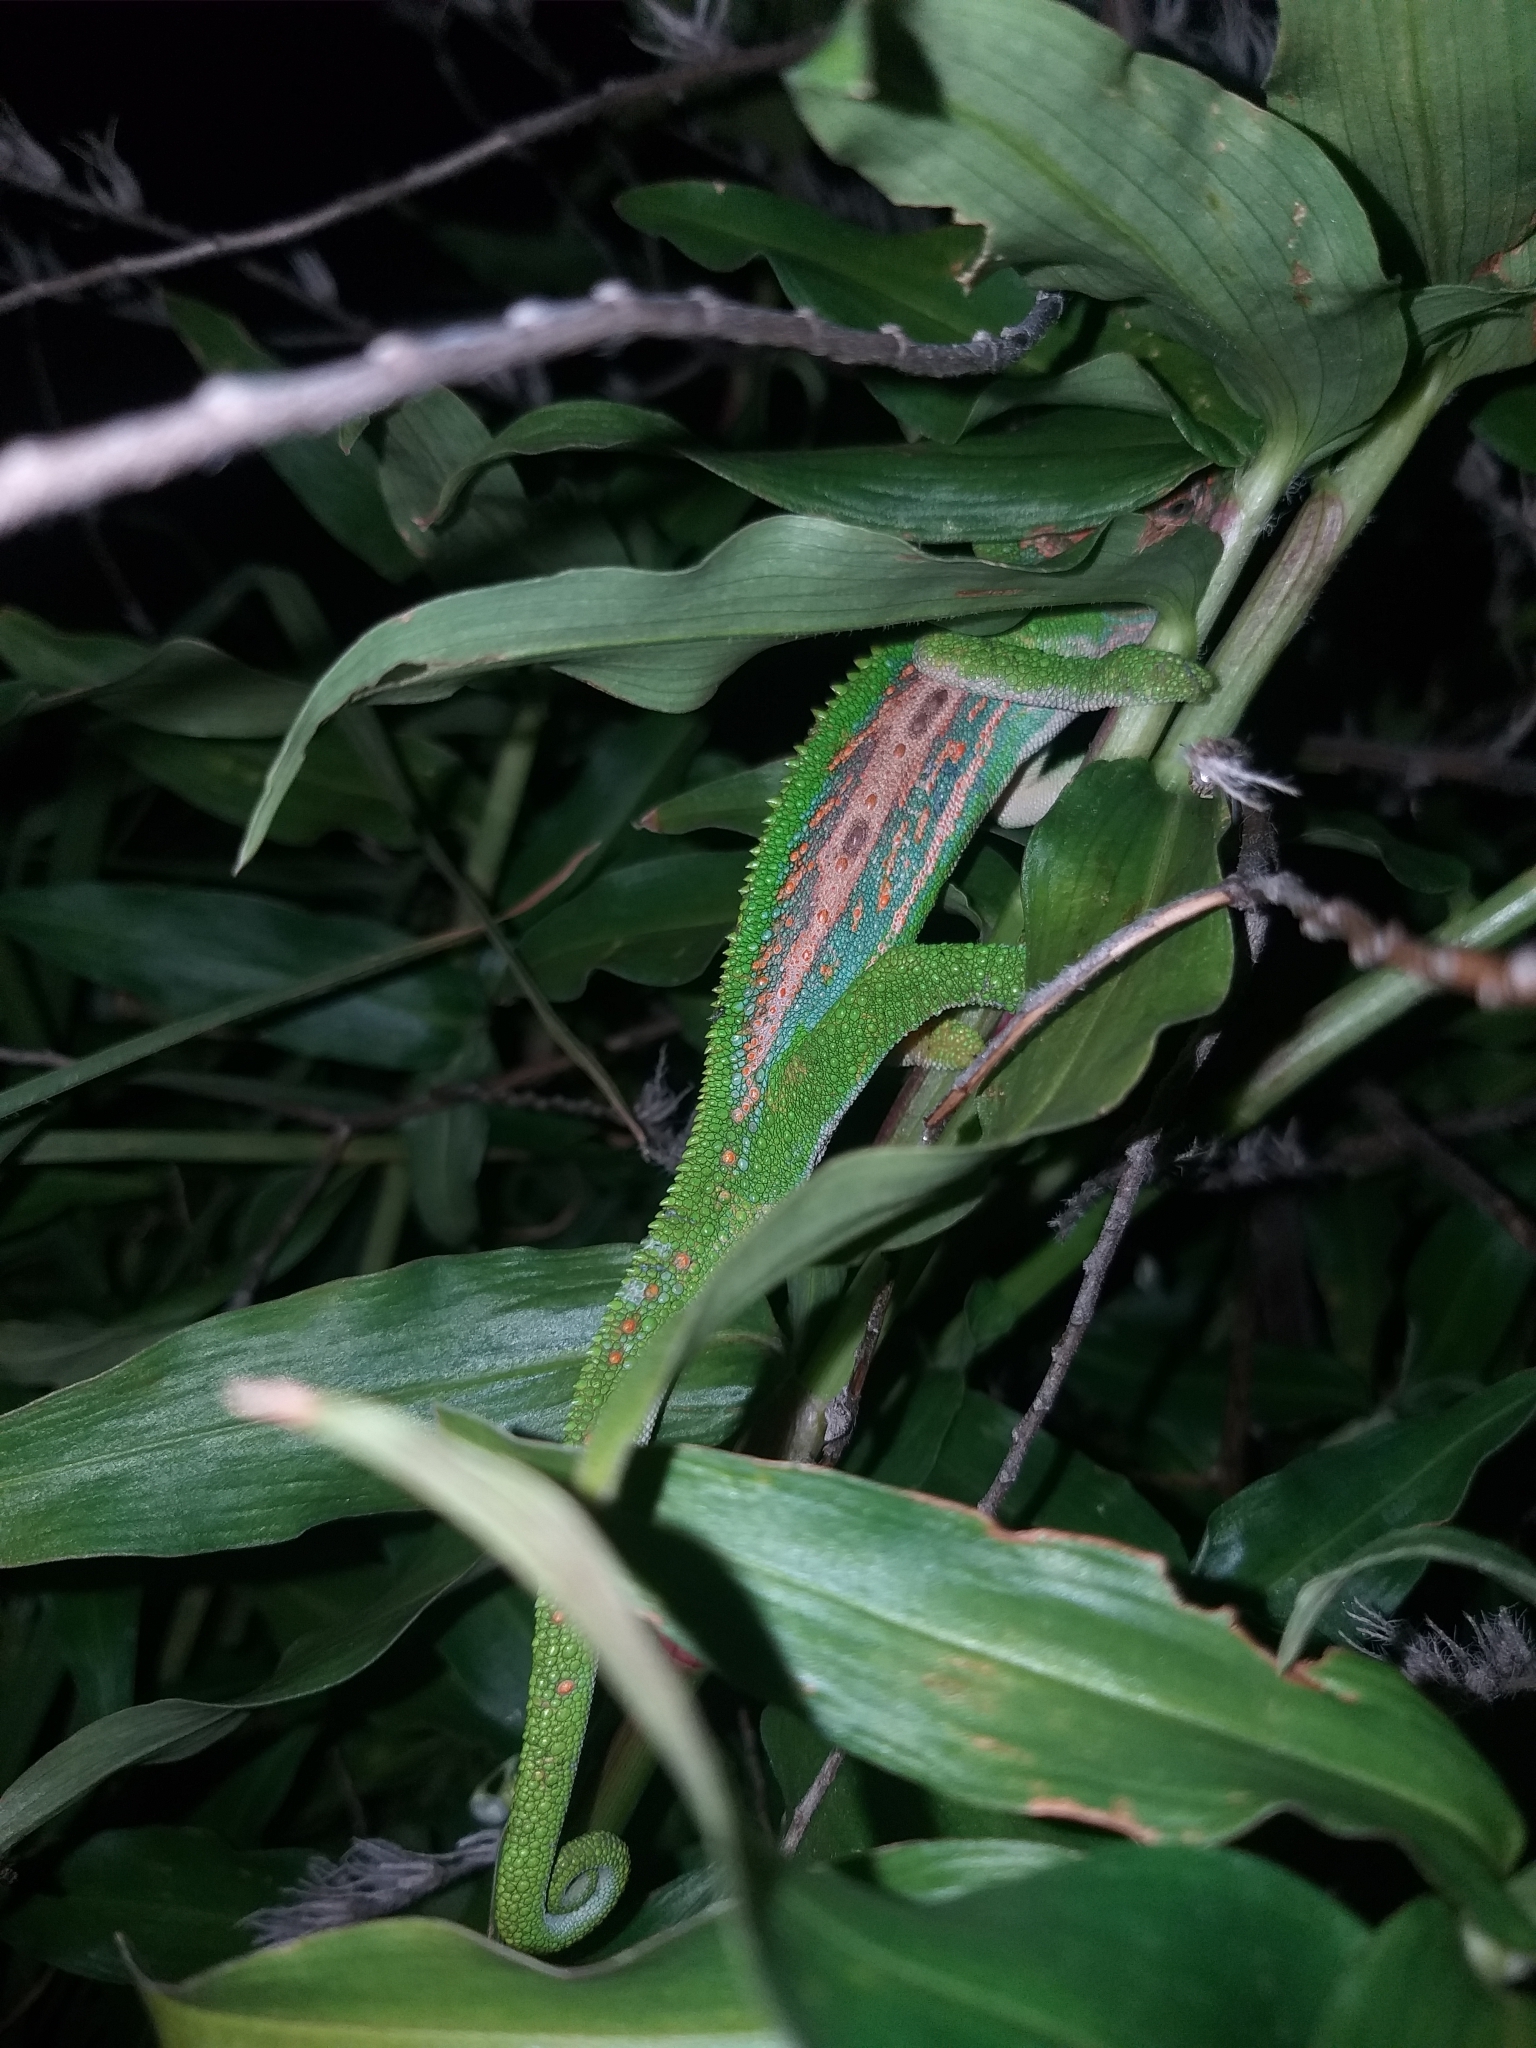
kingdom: Animalia
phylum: Chordata
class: Squamata
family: Chamaeleonidae
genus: Bradypodion
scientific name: Bradypodion pumilum
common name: Cape dwarf chameleon
